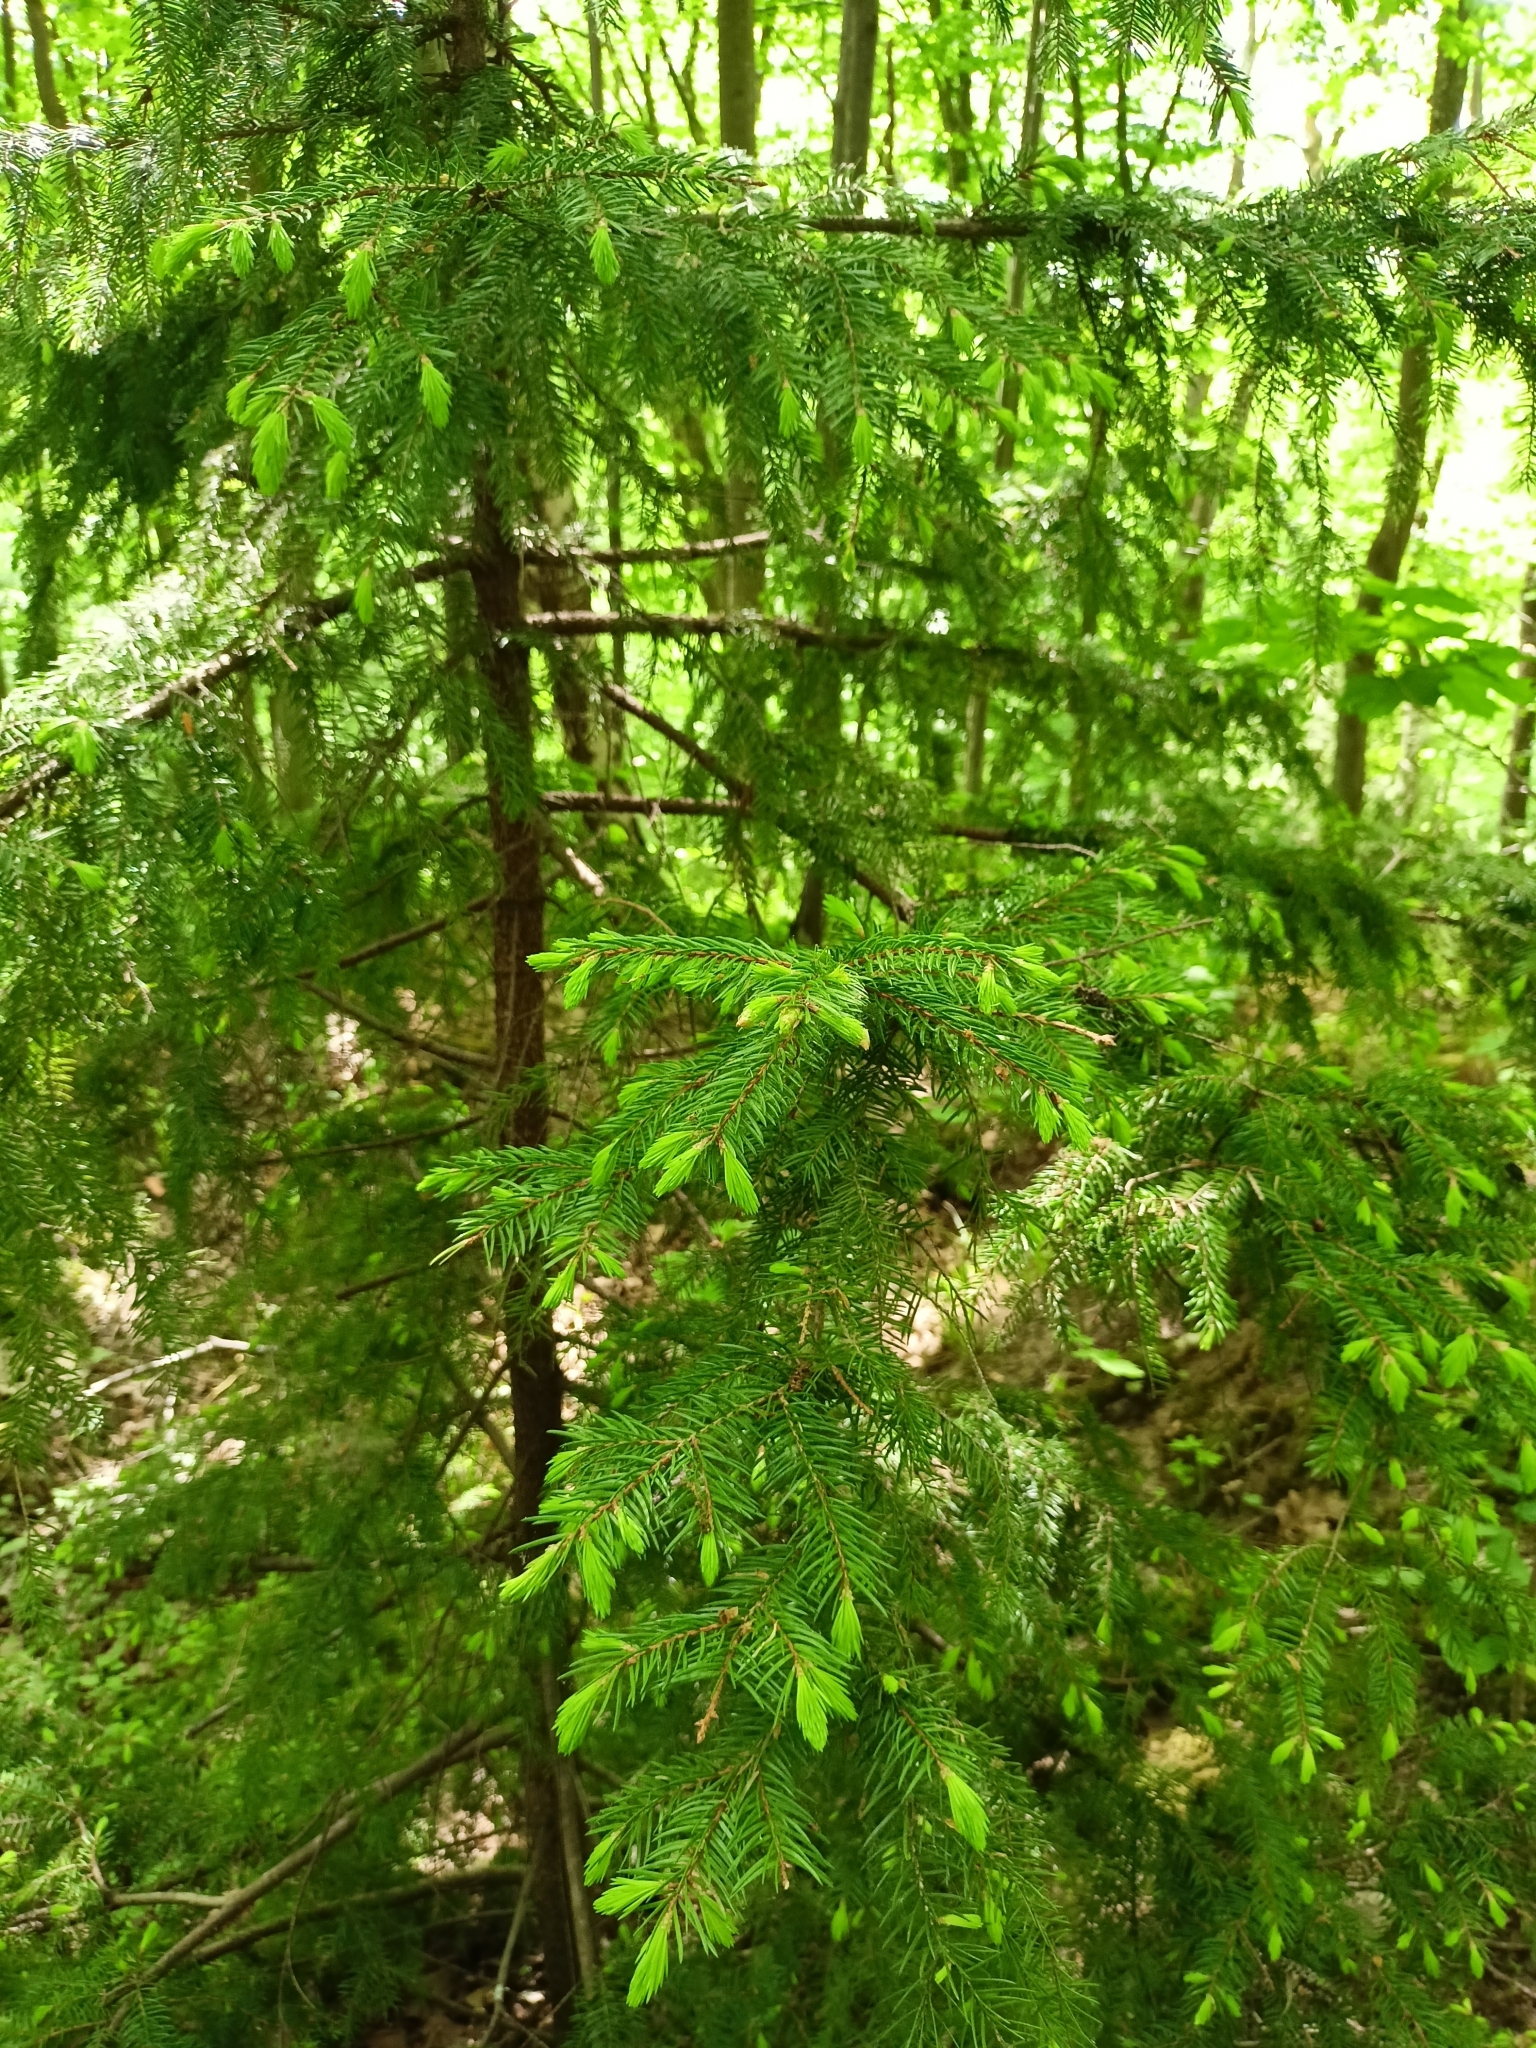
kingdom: Plantae
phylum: Tracheophyta
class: Pinopsida
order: Pinales
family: Pinaceae
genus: Picea
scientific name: Picea abies
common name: Norway spruce
